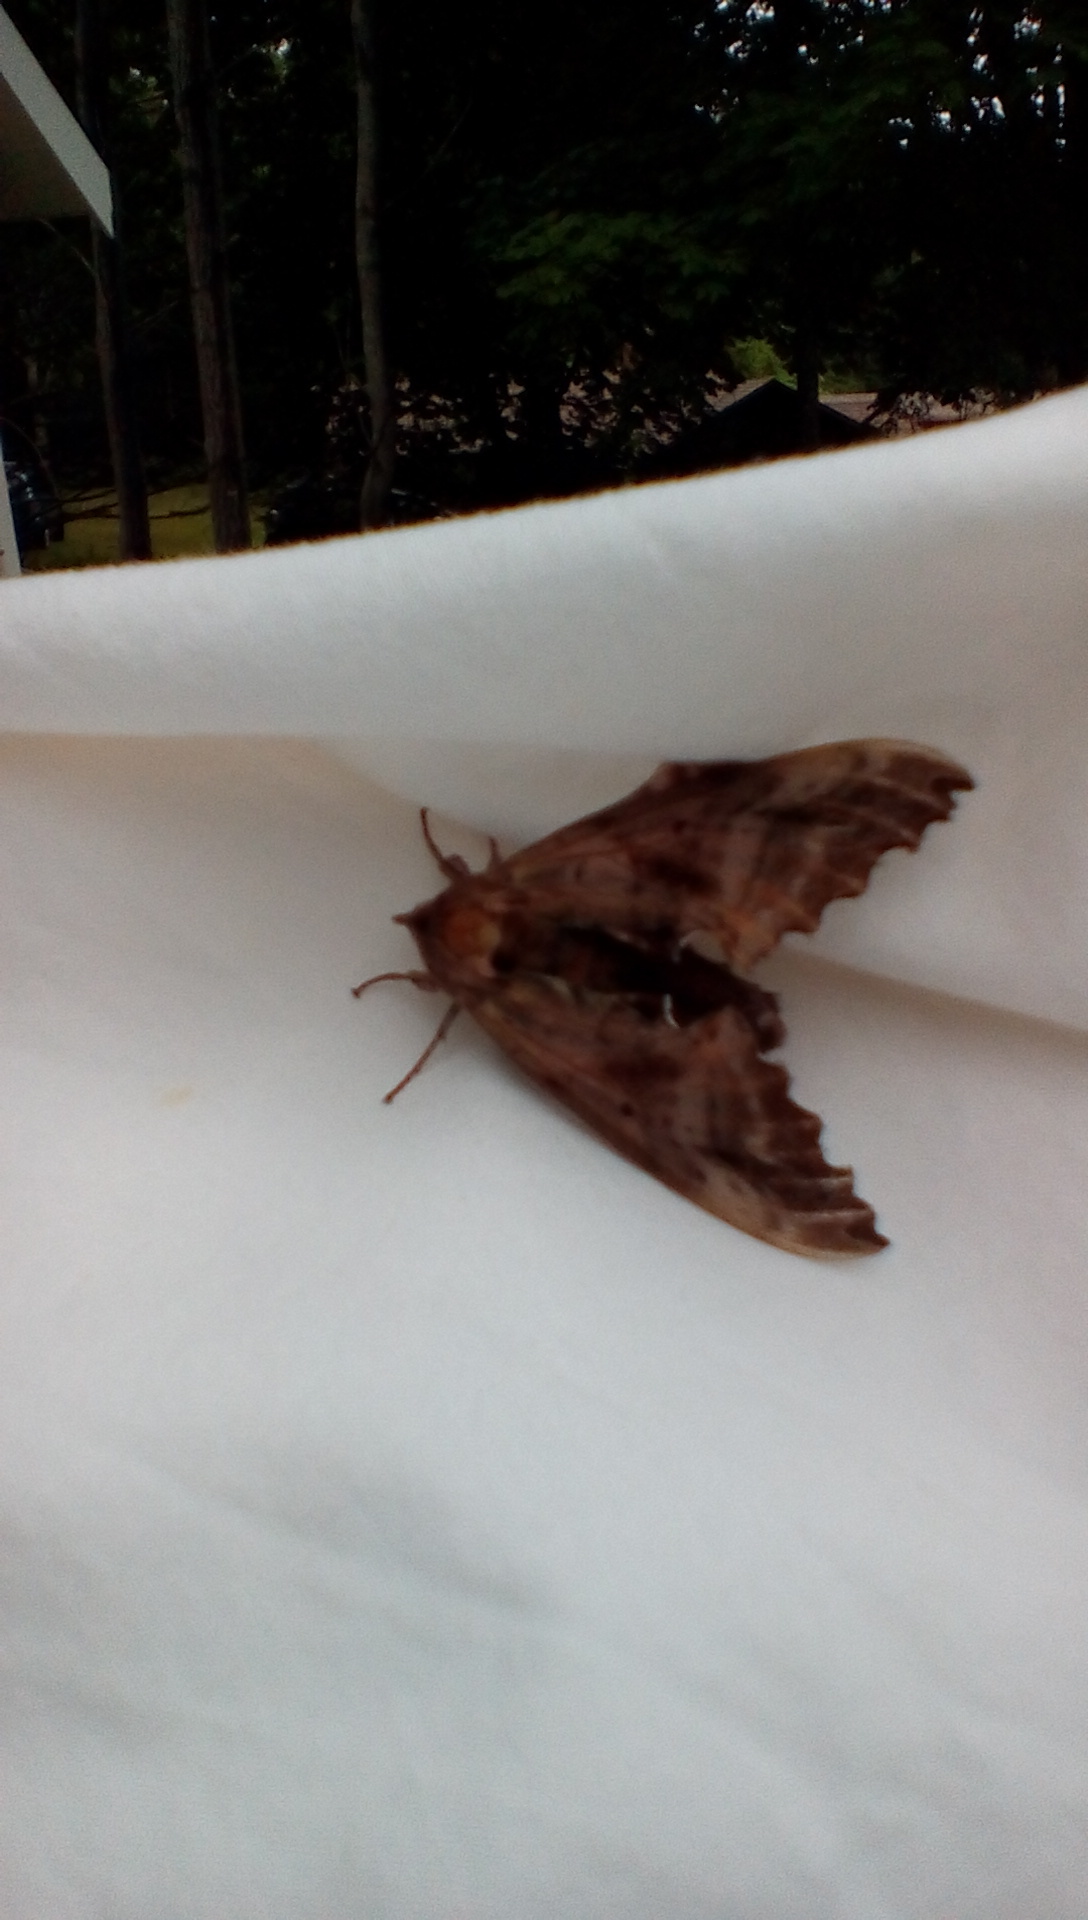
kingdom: Animalia
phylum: Arthropoda
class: Insecta
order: Lepidoptera
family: Sphingidae
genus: Paonias
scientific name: Paonias excaecata
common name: Blind-eyed sphinx
